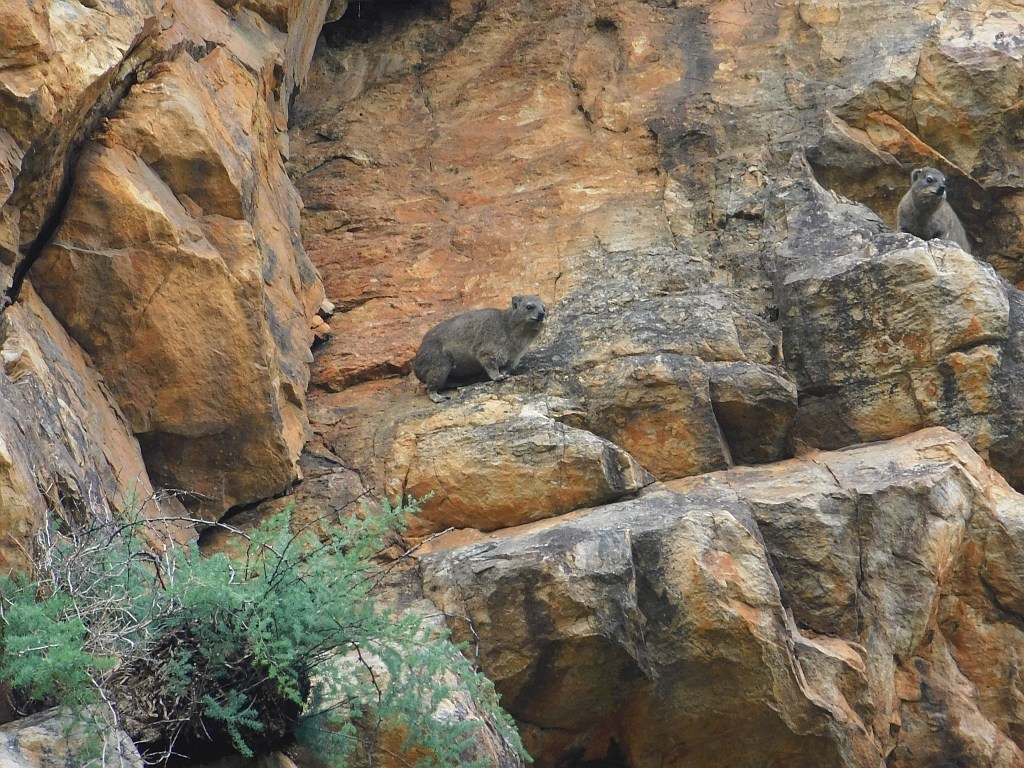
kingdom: Animalia
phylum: Chordata
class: Mammalia
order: Hyracoidea
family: Procaviidae
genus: Procavia
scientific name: Procavia capensis
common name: Rock hyrax
